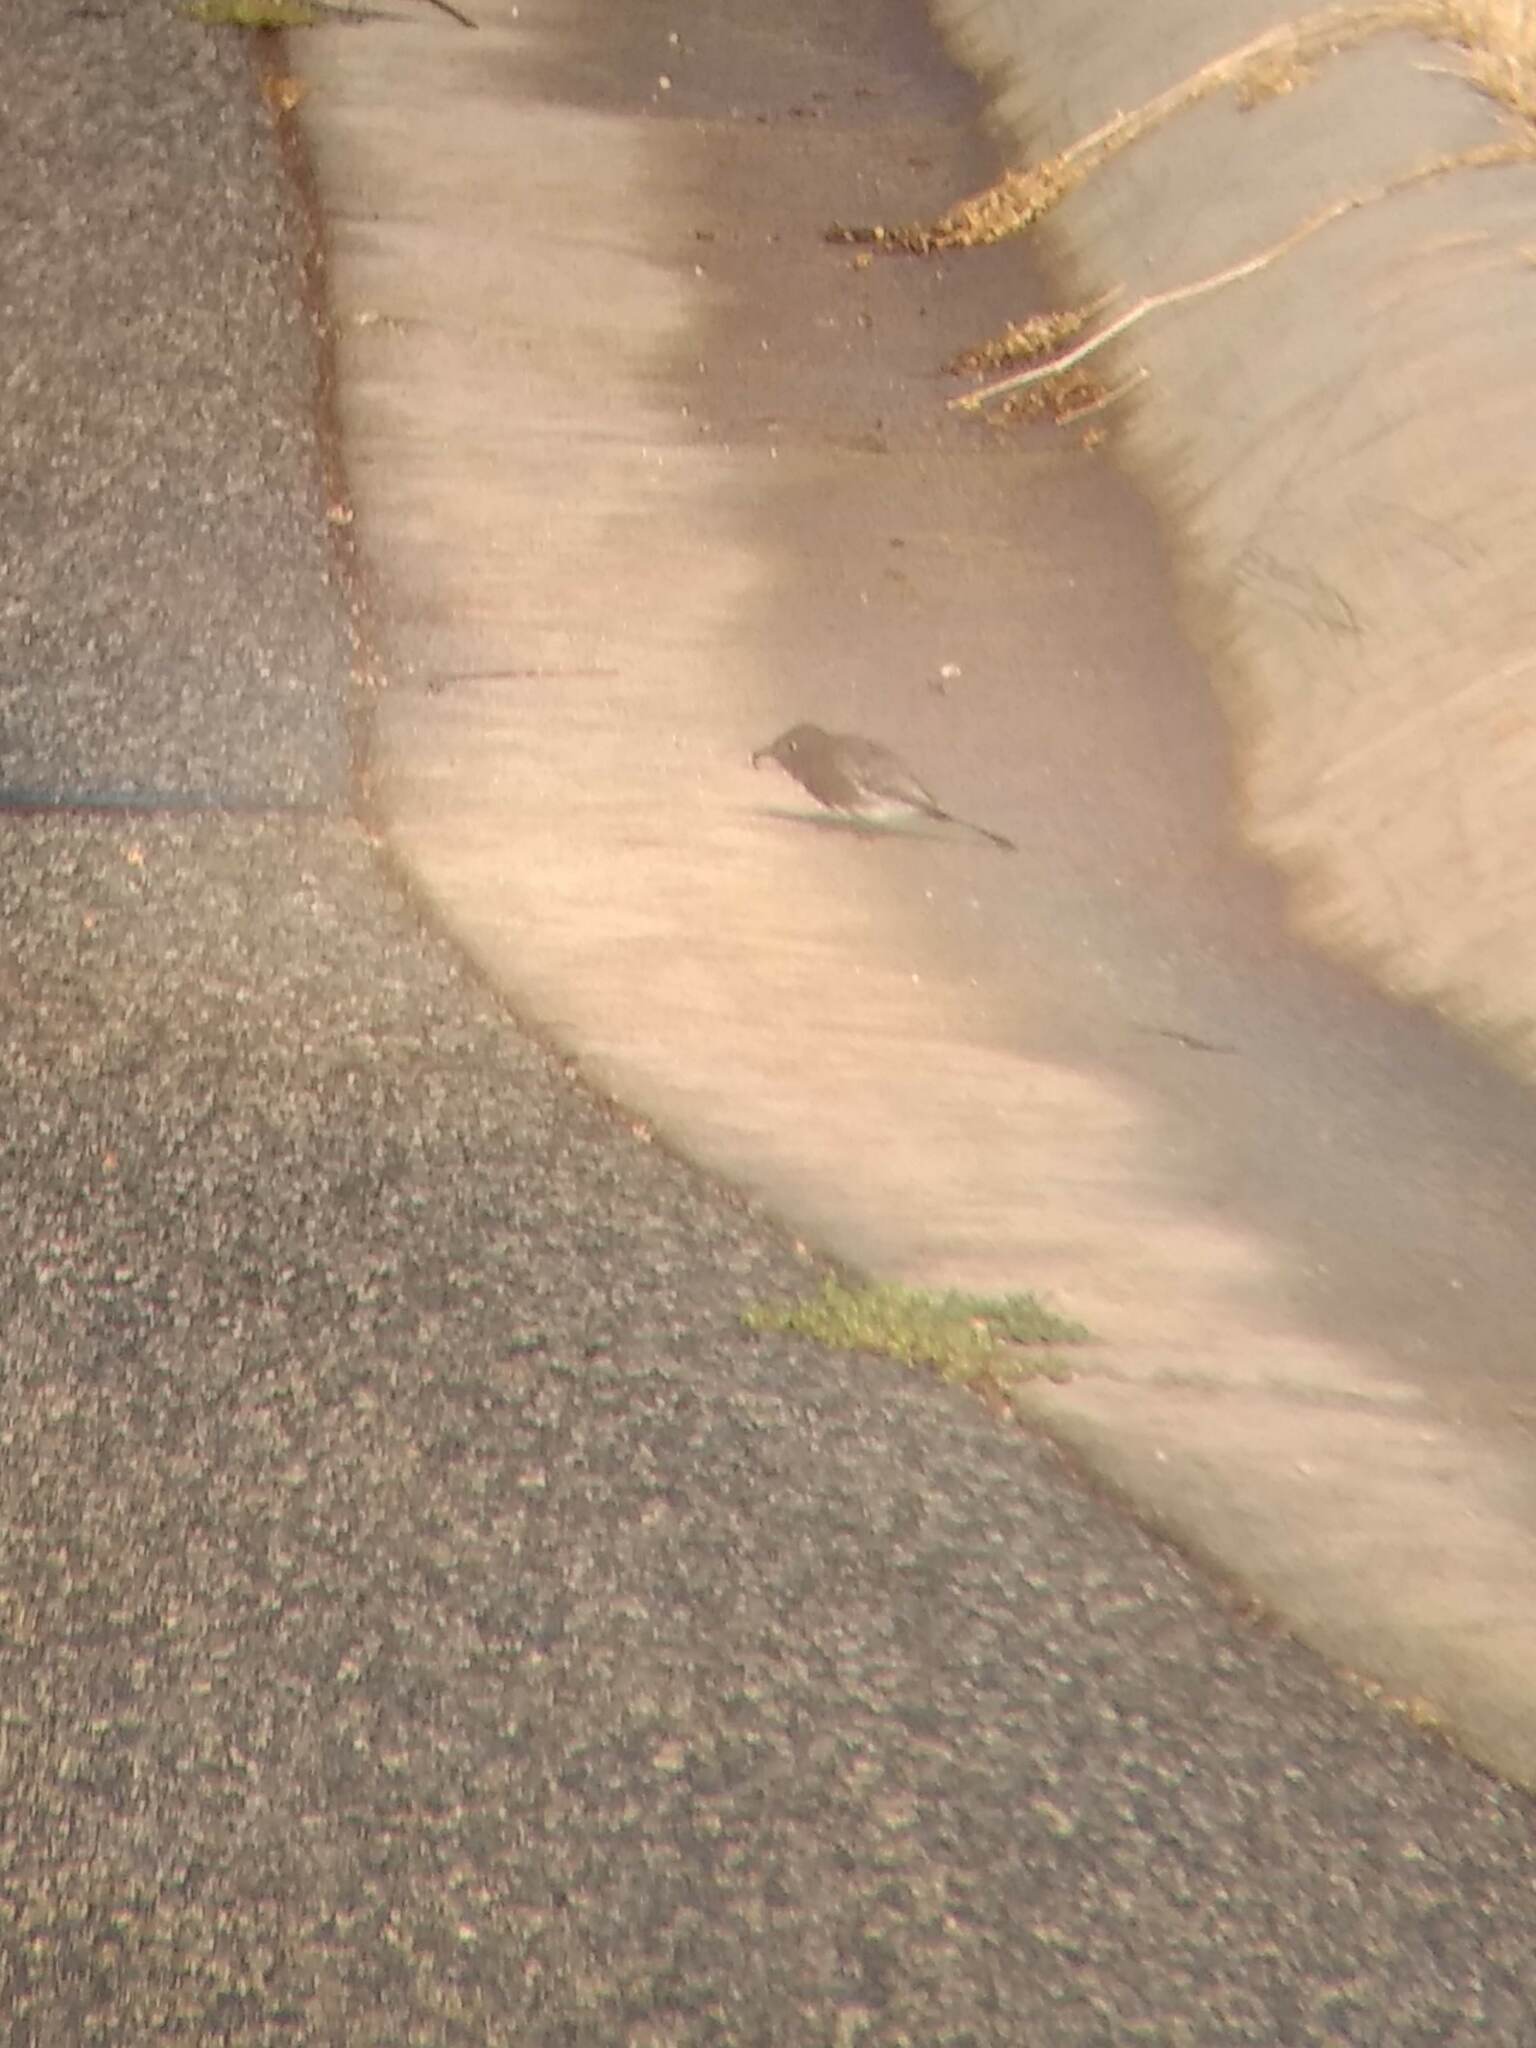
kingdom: Animalia
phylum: Chordata
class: Aves
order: Passeriformes
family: Tyrannidae
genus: Sayornis
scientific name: Sayornis nigricans
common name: Black phoebe
